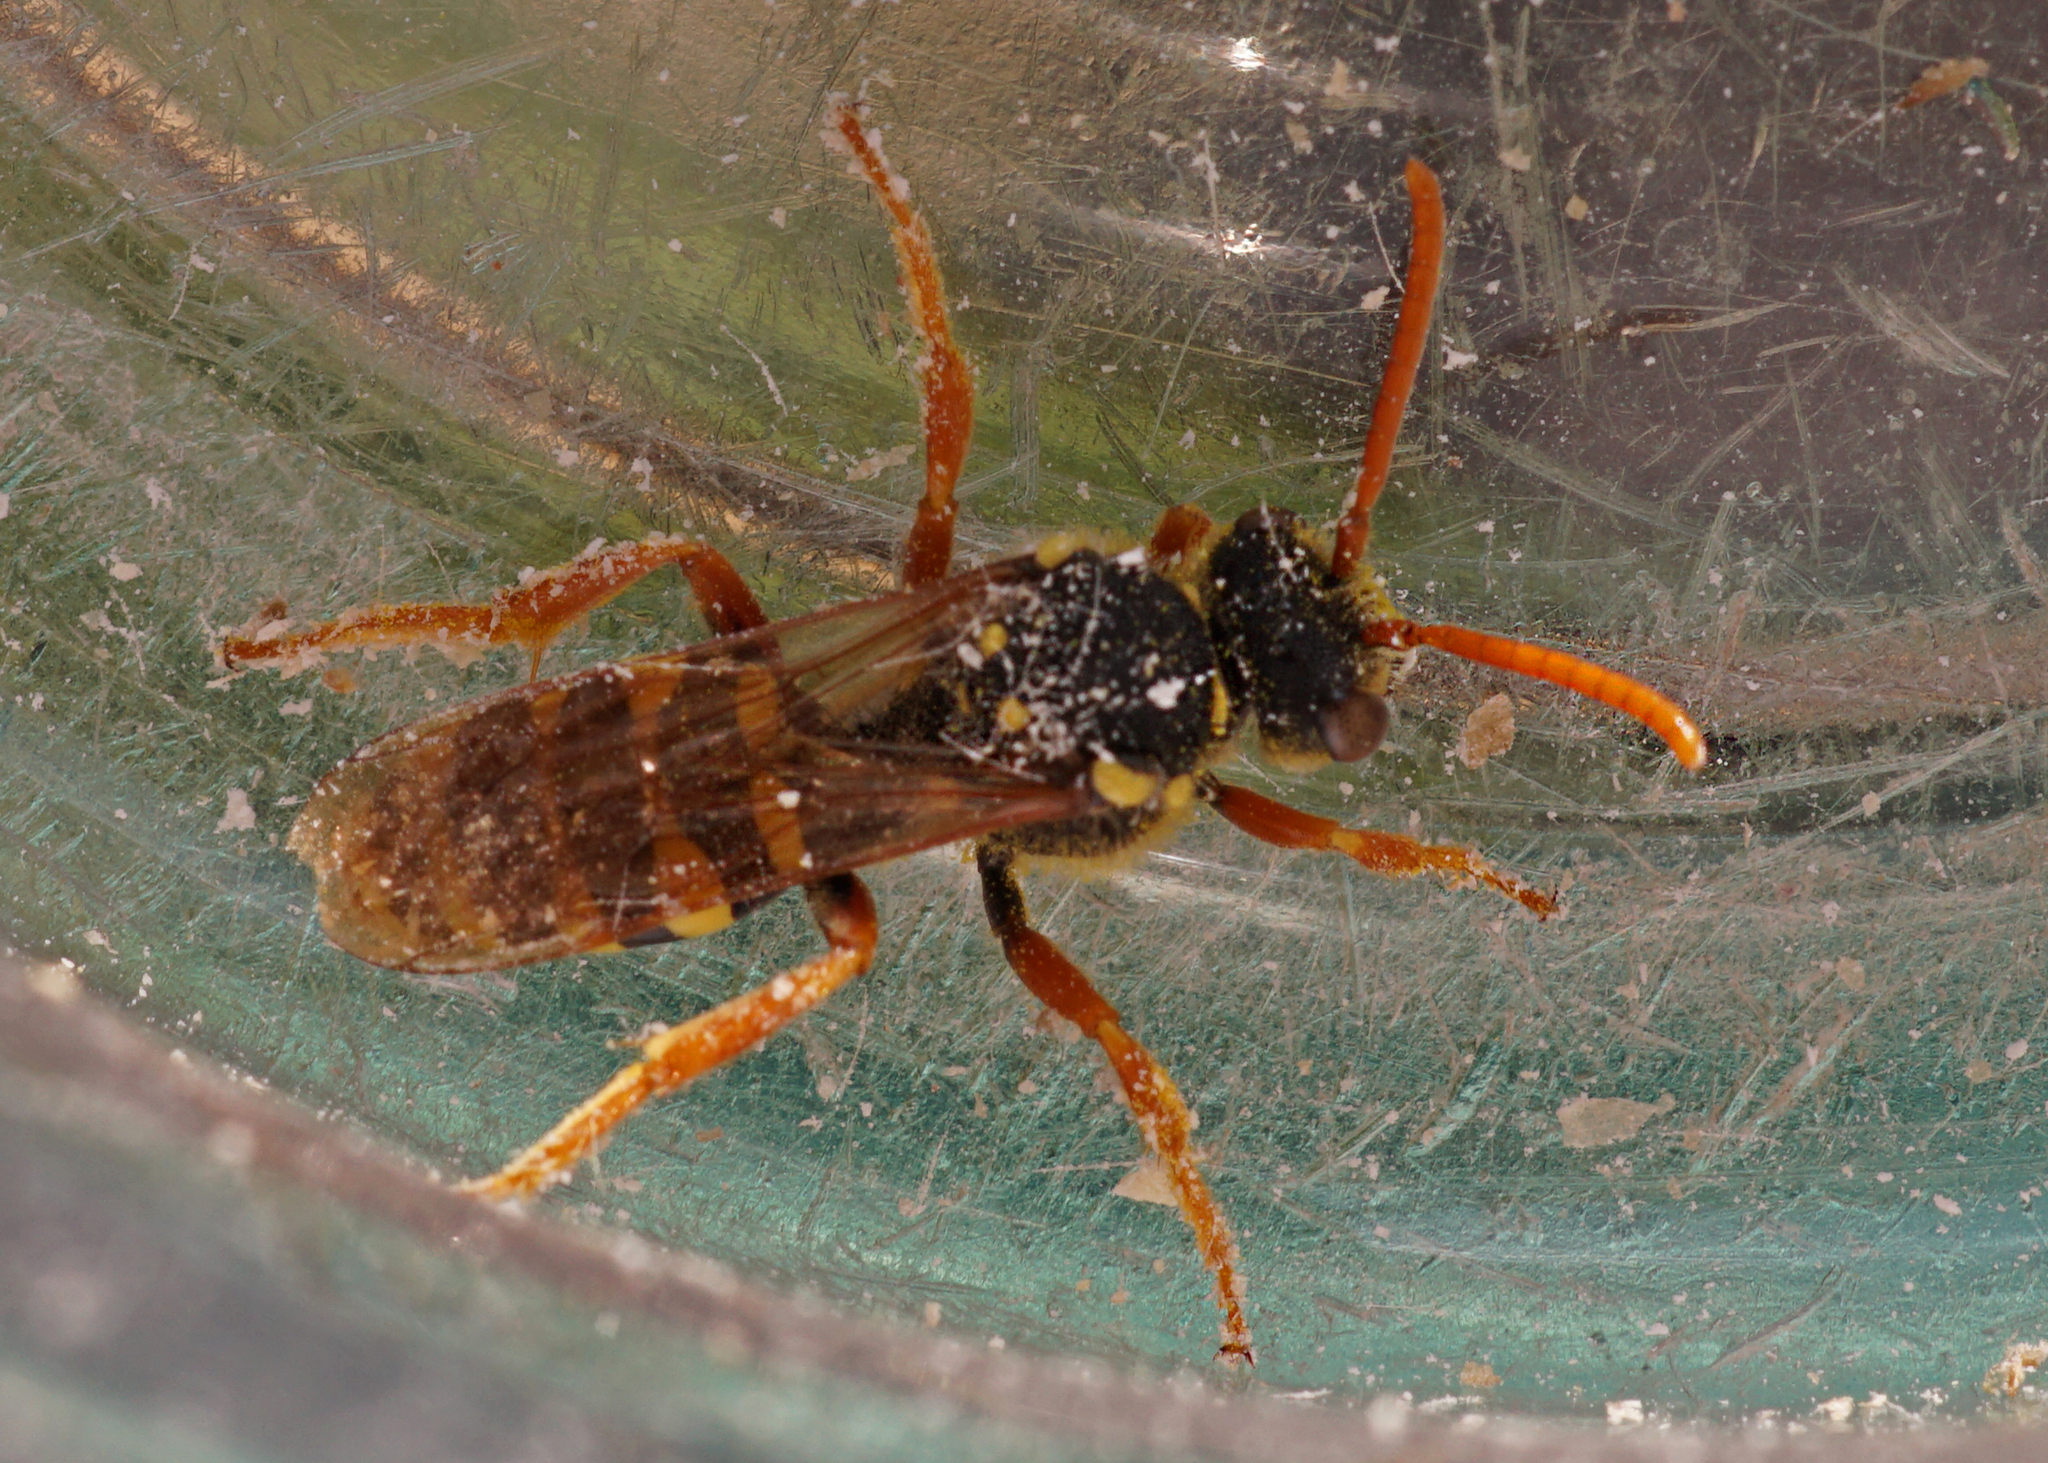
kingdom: Animalia
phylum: Arthropoda
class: Insecta
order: Hymenoptera
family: Apidae
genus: Nomada
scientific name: Nomada goodeniana
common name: Gooden's nomad bee
